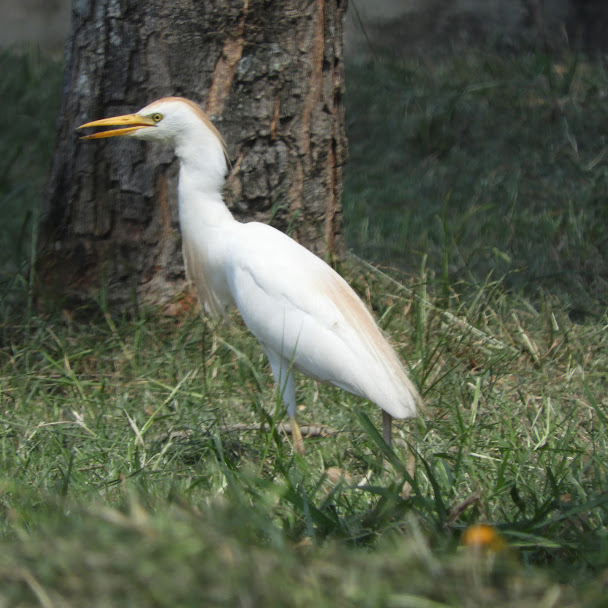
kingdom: Animalia
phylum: Chordata
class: Aves
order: Pelecaniformes
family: Ardeidae
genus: Bubulcus
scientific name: Bubulcus ibis
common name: Cattle egret
